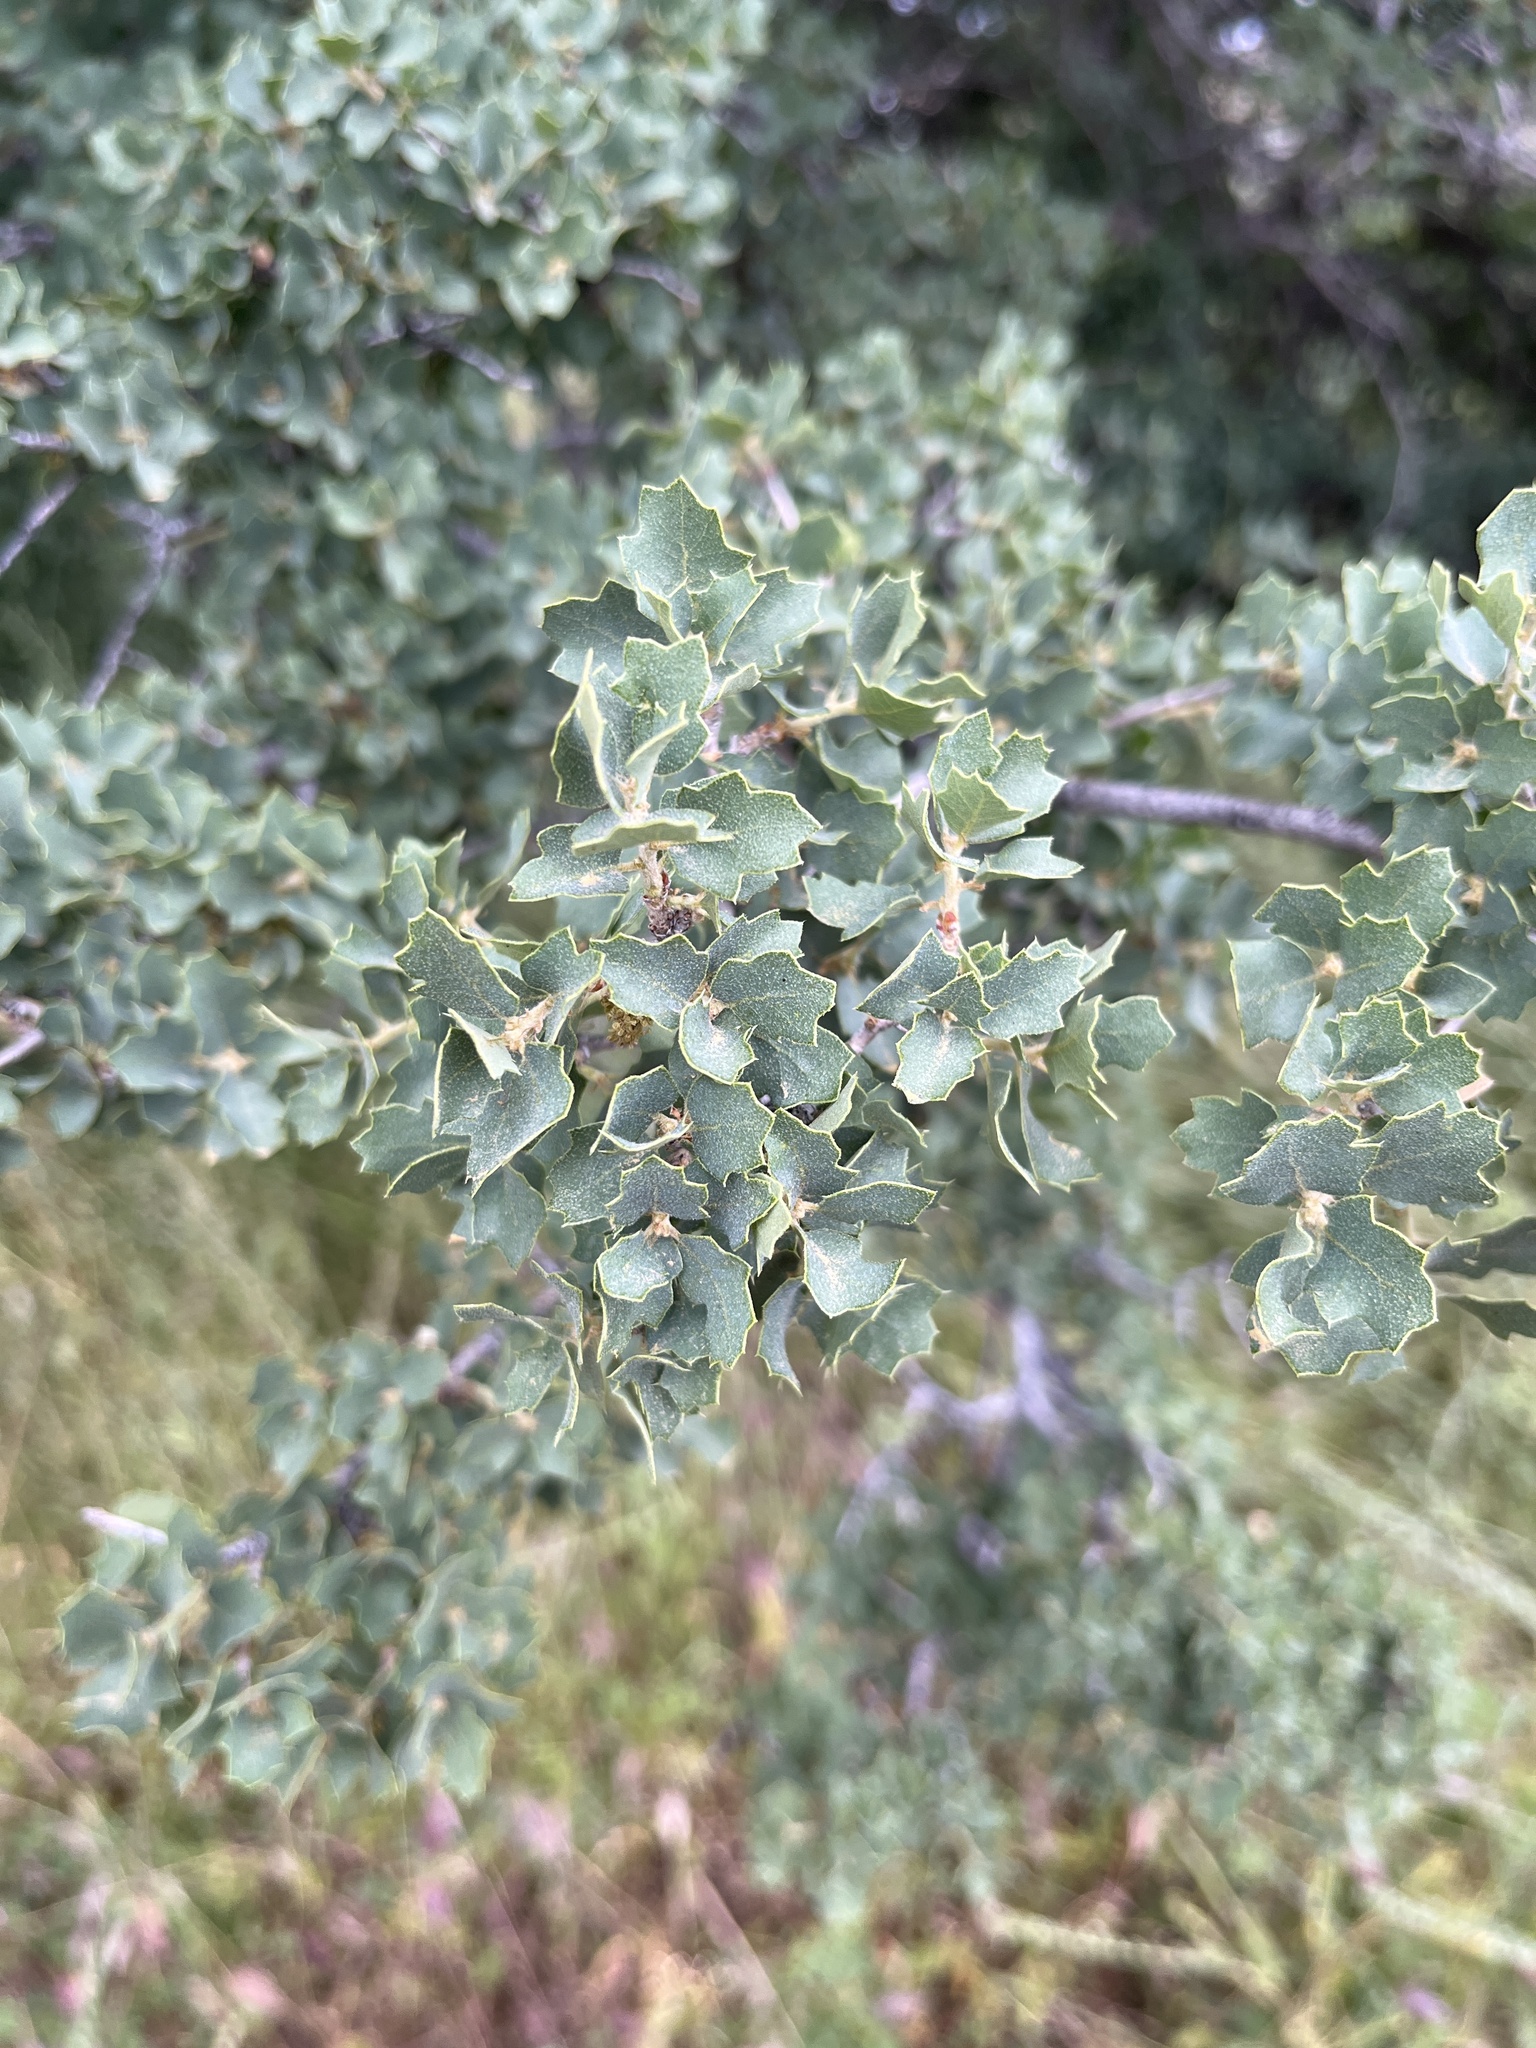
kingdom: Plantae
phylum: Tracheophyta
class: Magnoliopsida
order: Fagales
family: Fagaceae
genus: Quercus
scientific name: Quercus john-tuckeri
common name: Tucker's oak
